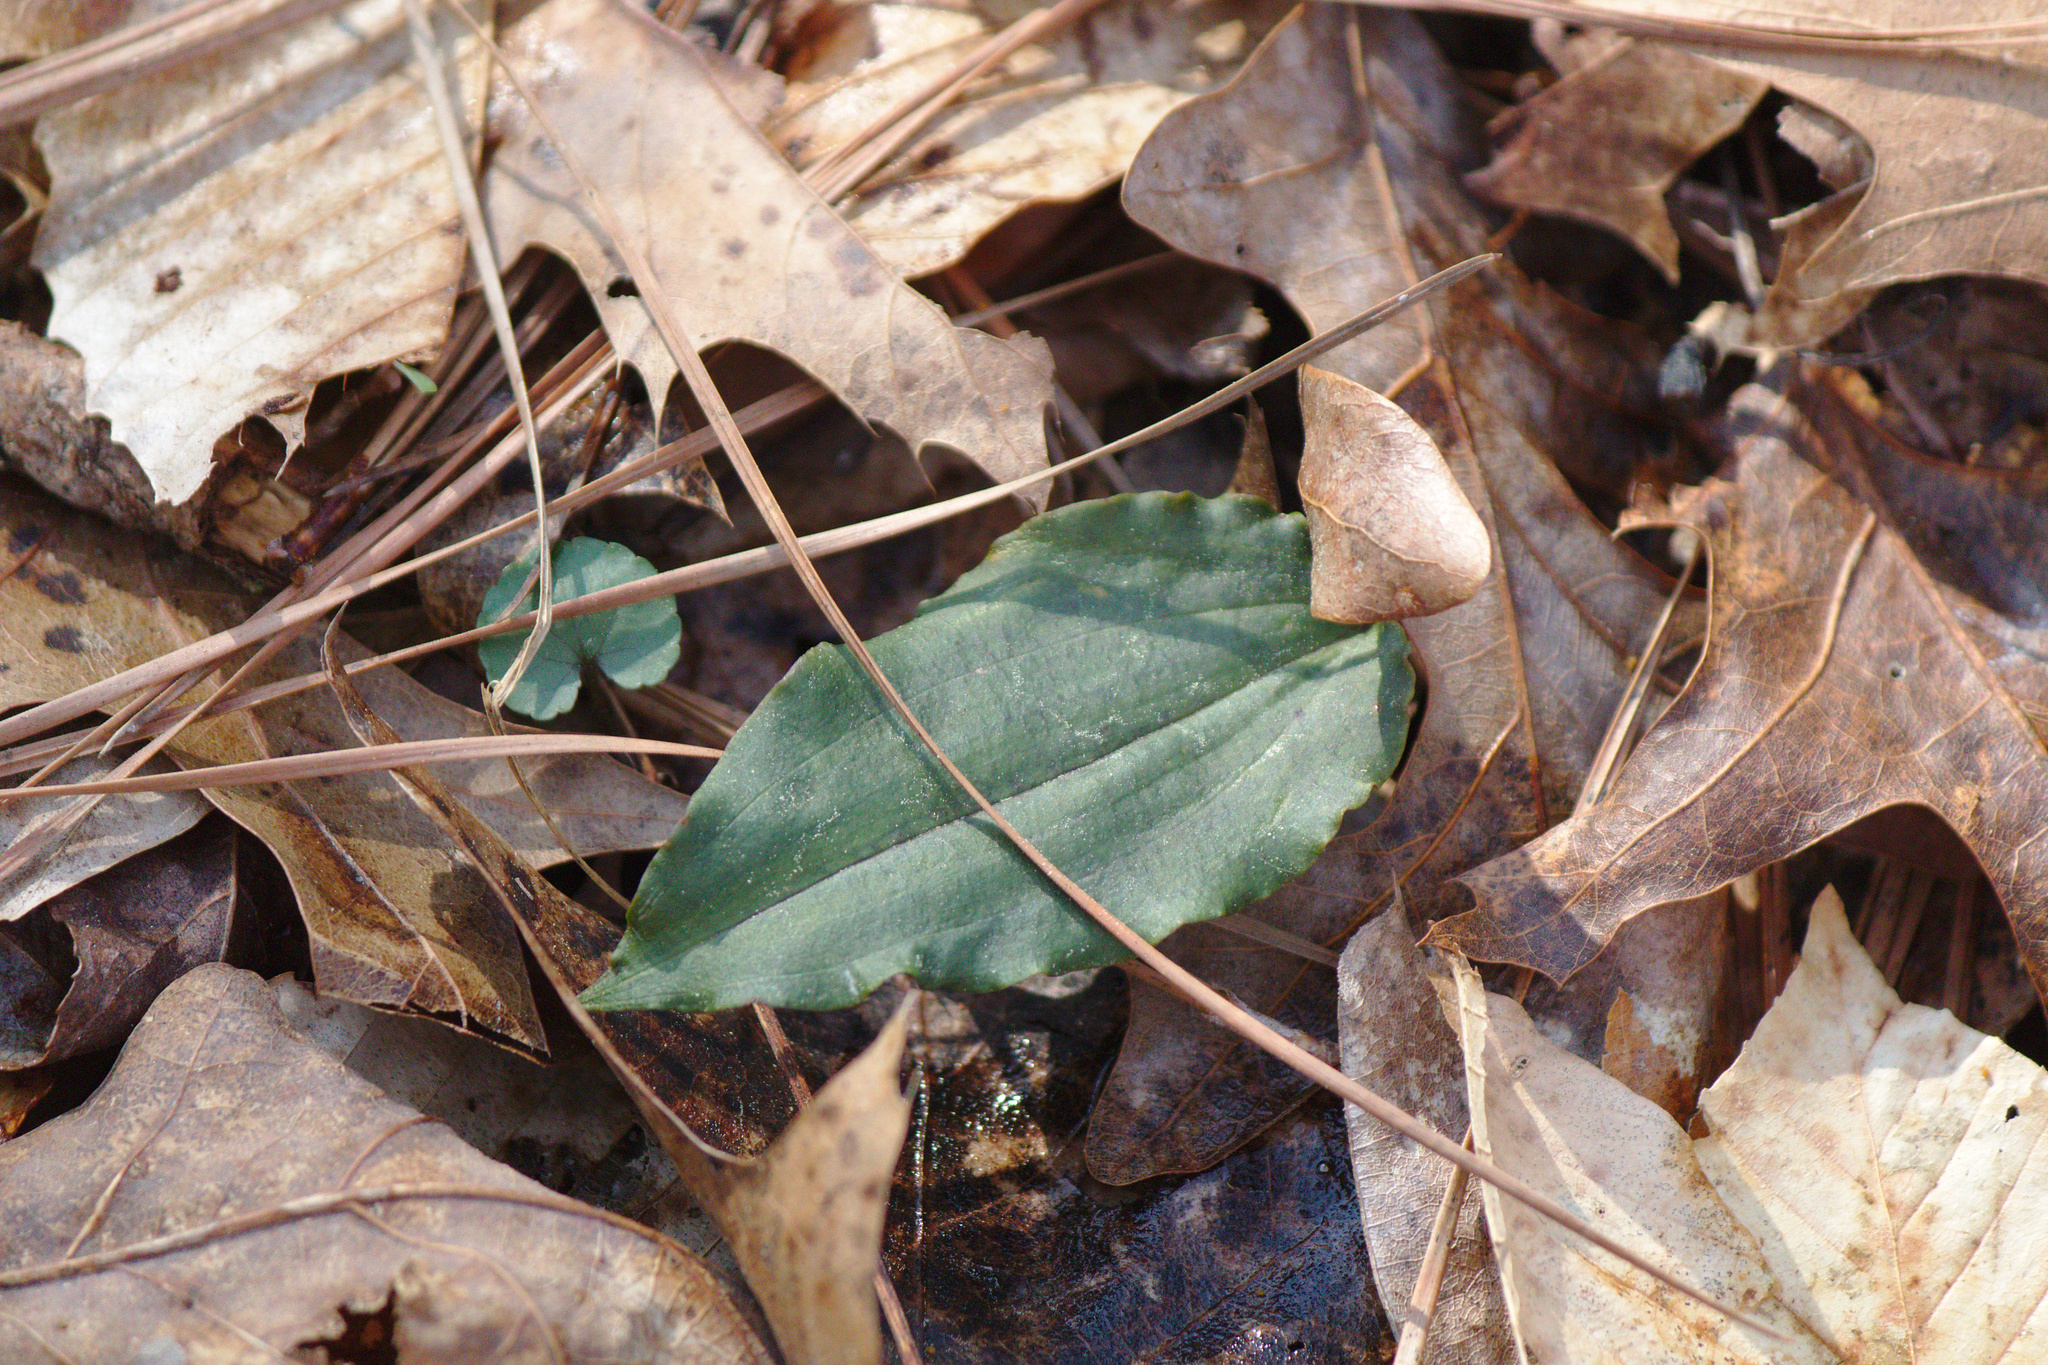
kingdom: Plantae
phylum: Tracheophyta
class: Liliopsida
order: Asparagales
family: Orchidaceae
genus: Tipularia
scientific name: Tipularia discolor
